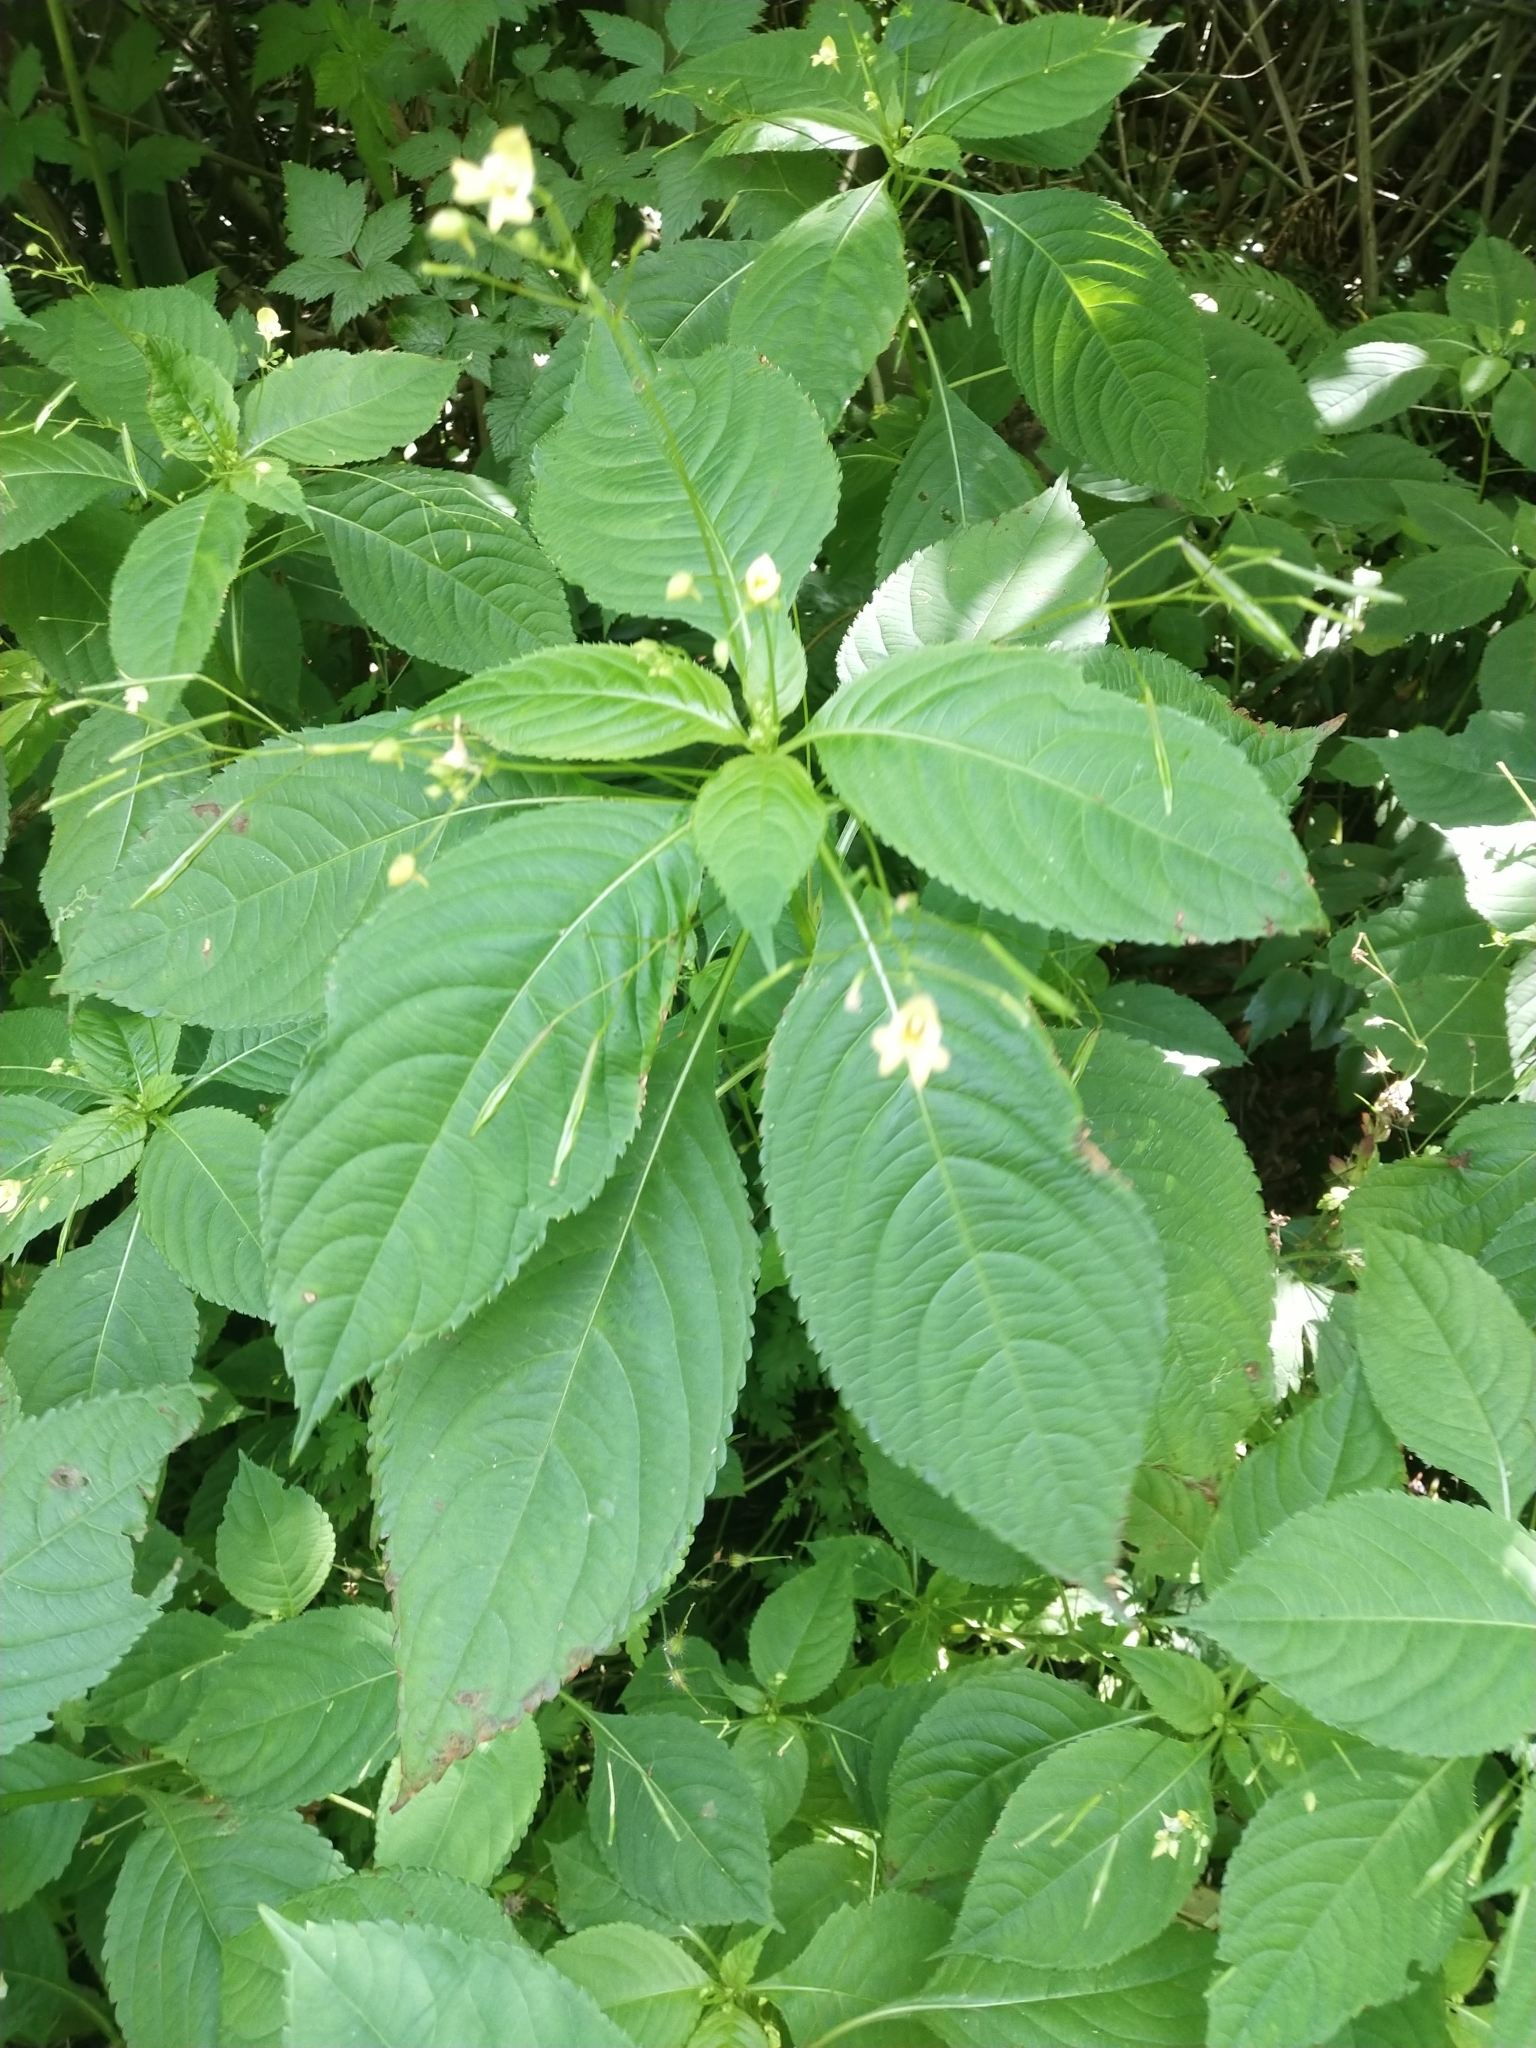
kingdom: Plantae
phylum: Tracheophyta
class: Magnoliopsida
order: Ericales
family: Balsaminaceae
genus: Impatiens
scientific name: Impatiens parviflora
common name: Small balsam
